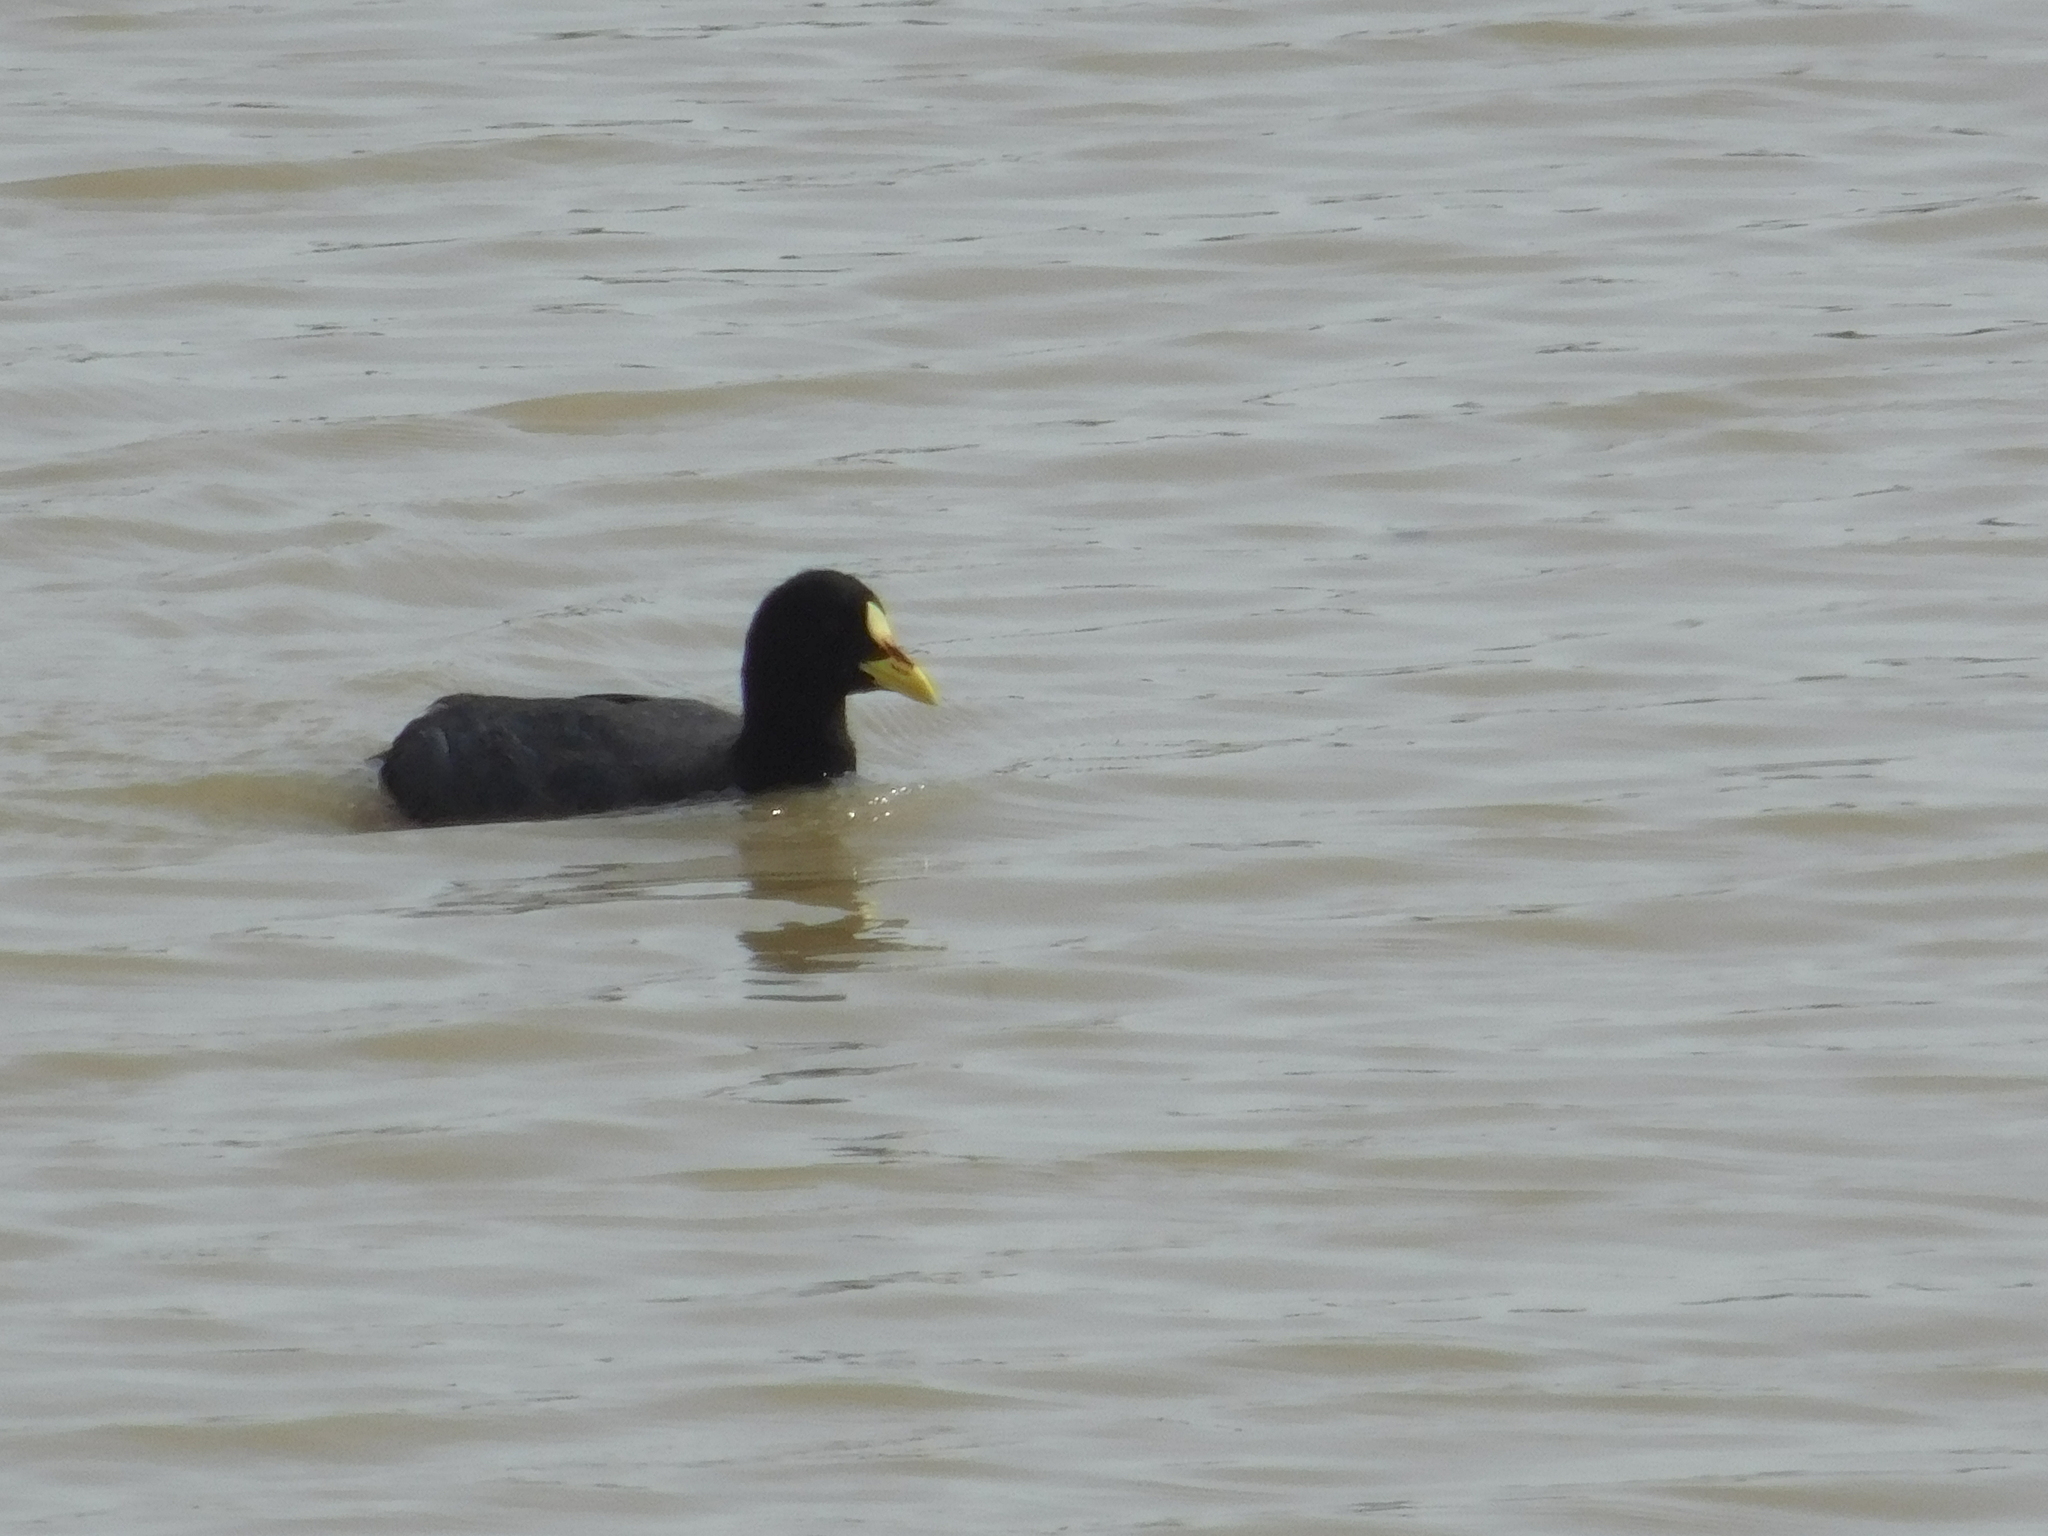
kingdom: Animalia
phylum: Chordata
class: Aves
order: Gruiformes
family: Rallidae
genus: Fulica
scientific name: Fulica armillata
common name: Red-gartered coot
